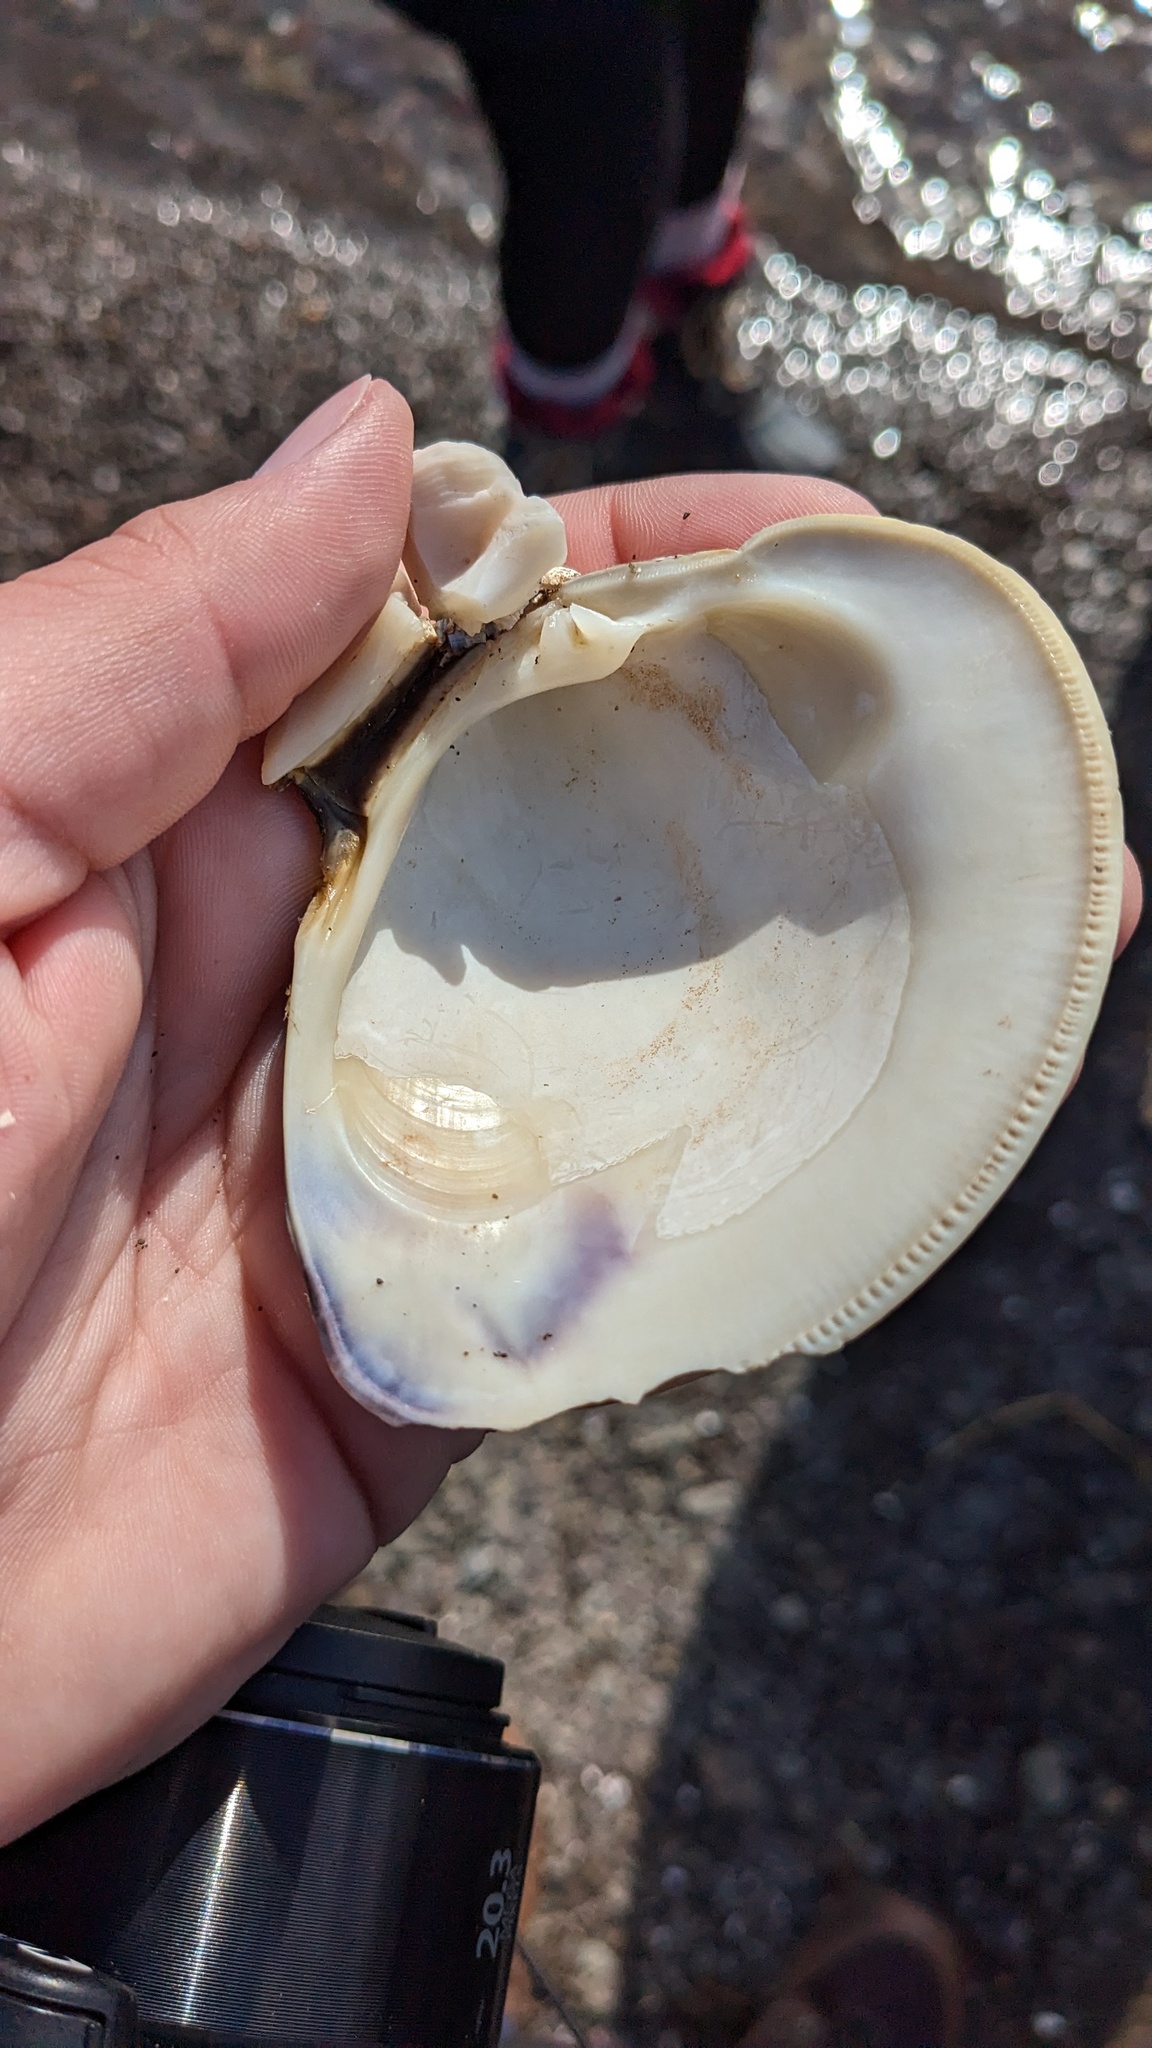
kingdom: Animalia
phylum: Mollusca
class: Bivalvia
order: Venerida
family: Veneridae
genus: Mercenaria
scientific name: Mercenaria mercenaria
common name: American hard-shelled clam
